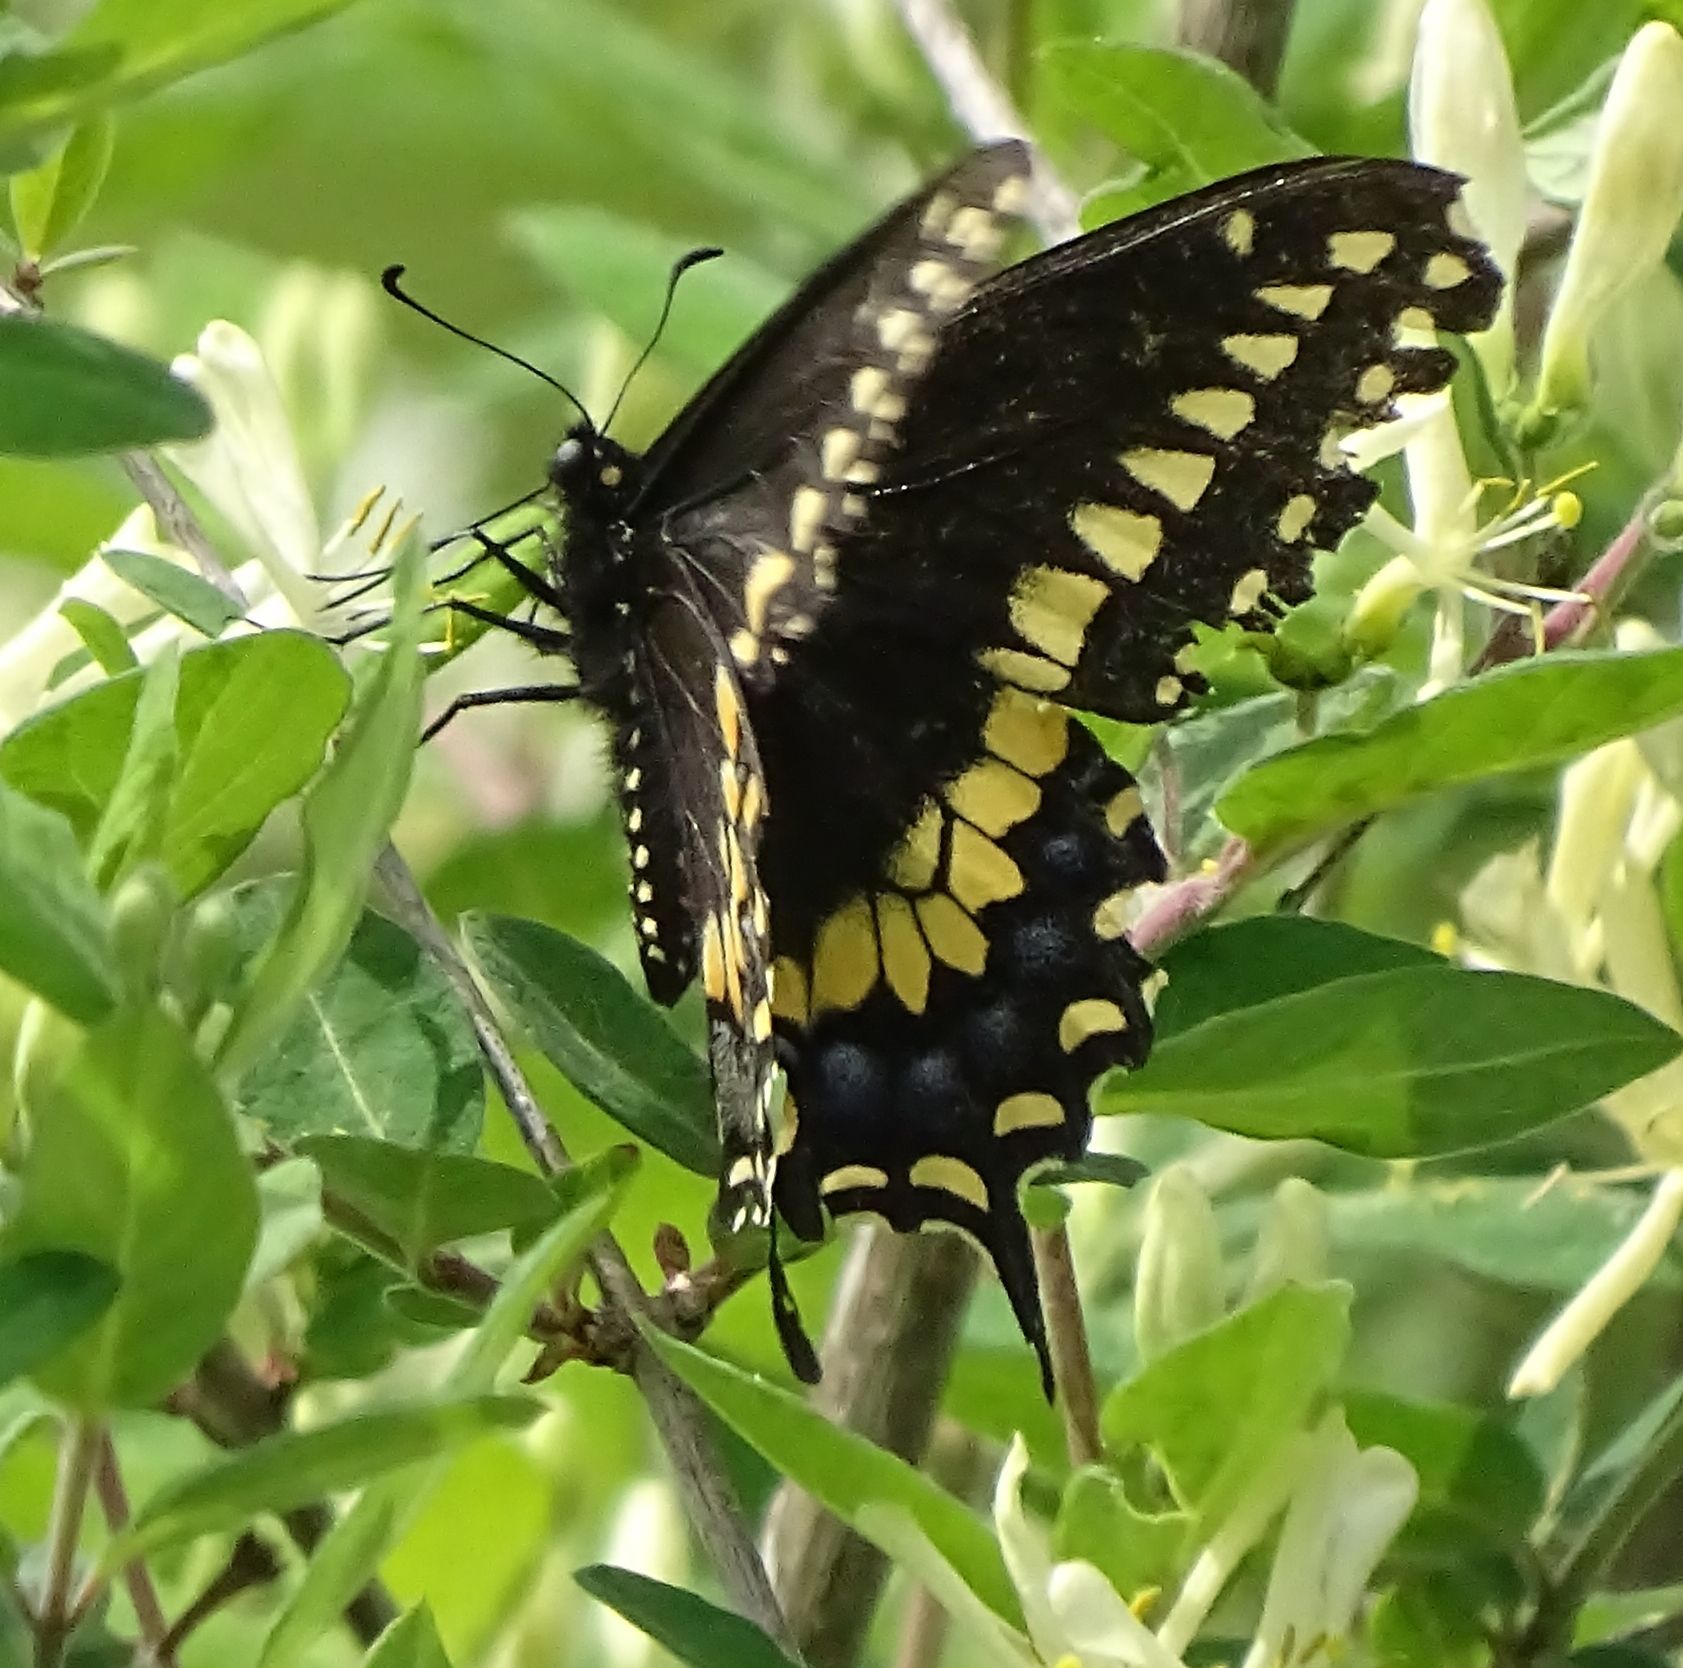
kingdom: Animalia
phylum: Arthropoda
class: Insecta
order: Lepidoptera
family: Papilionidae
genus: Papilio
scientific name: Papilio polyxenes
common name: Black swallowtail
